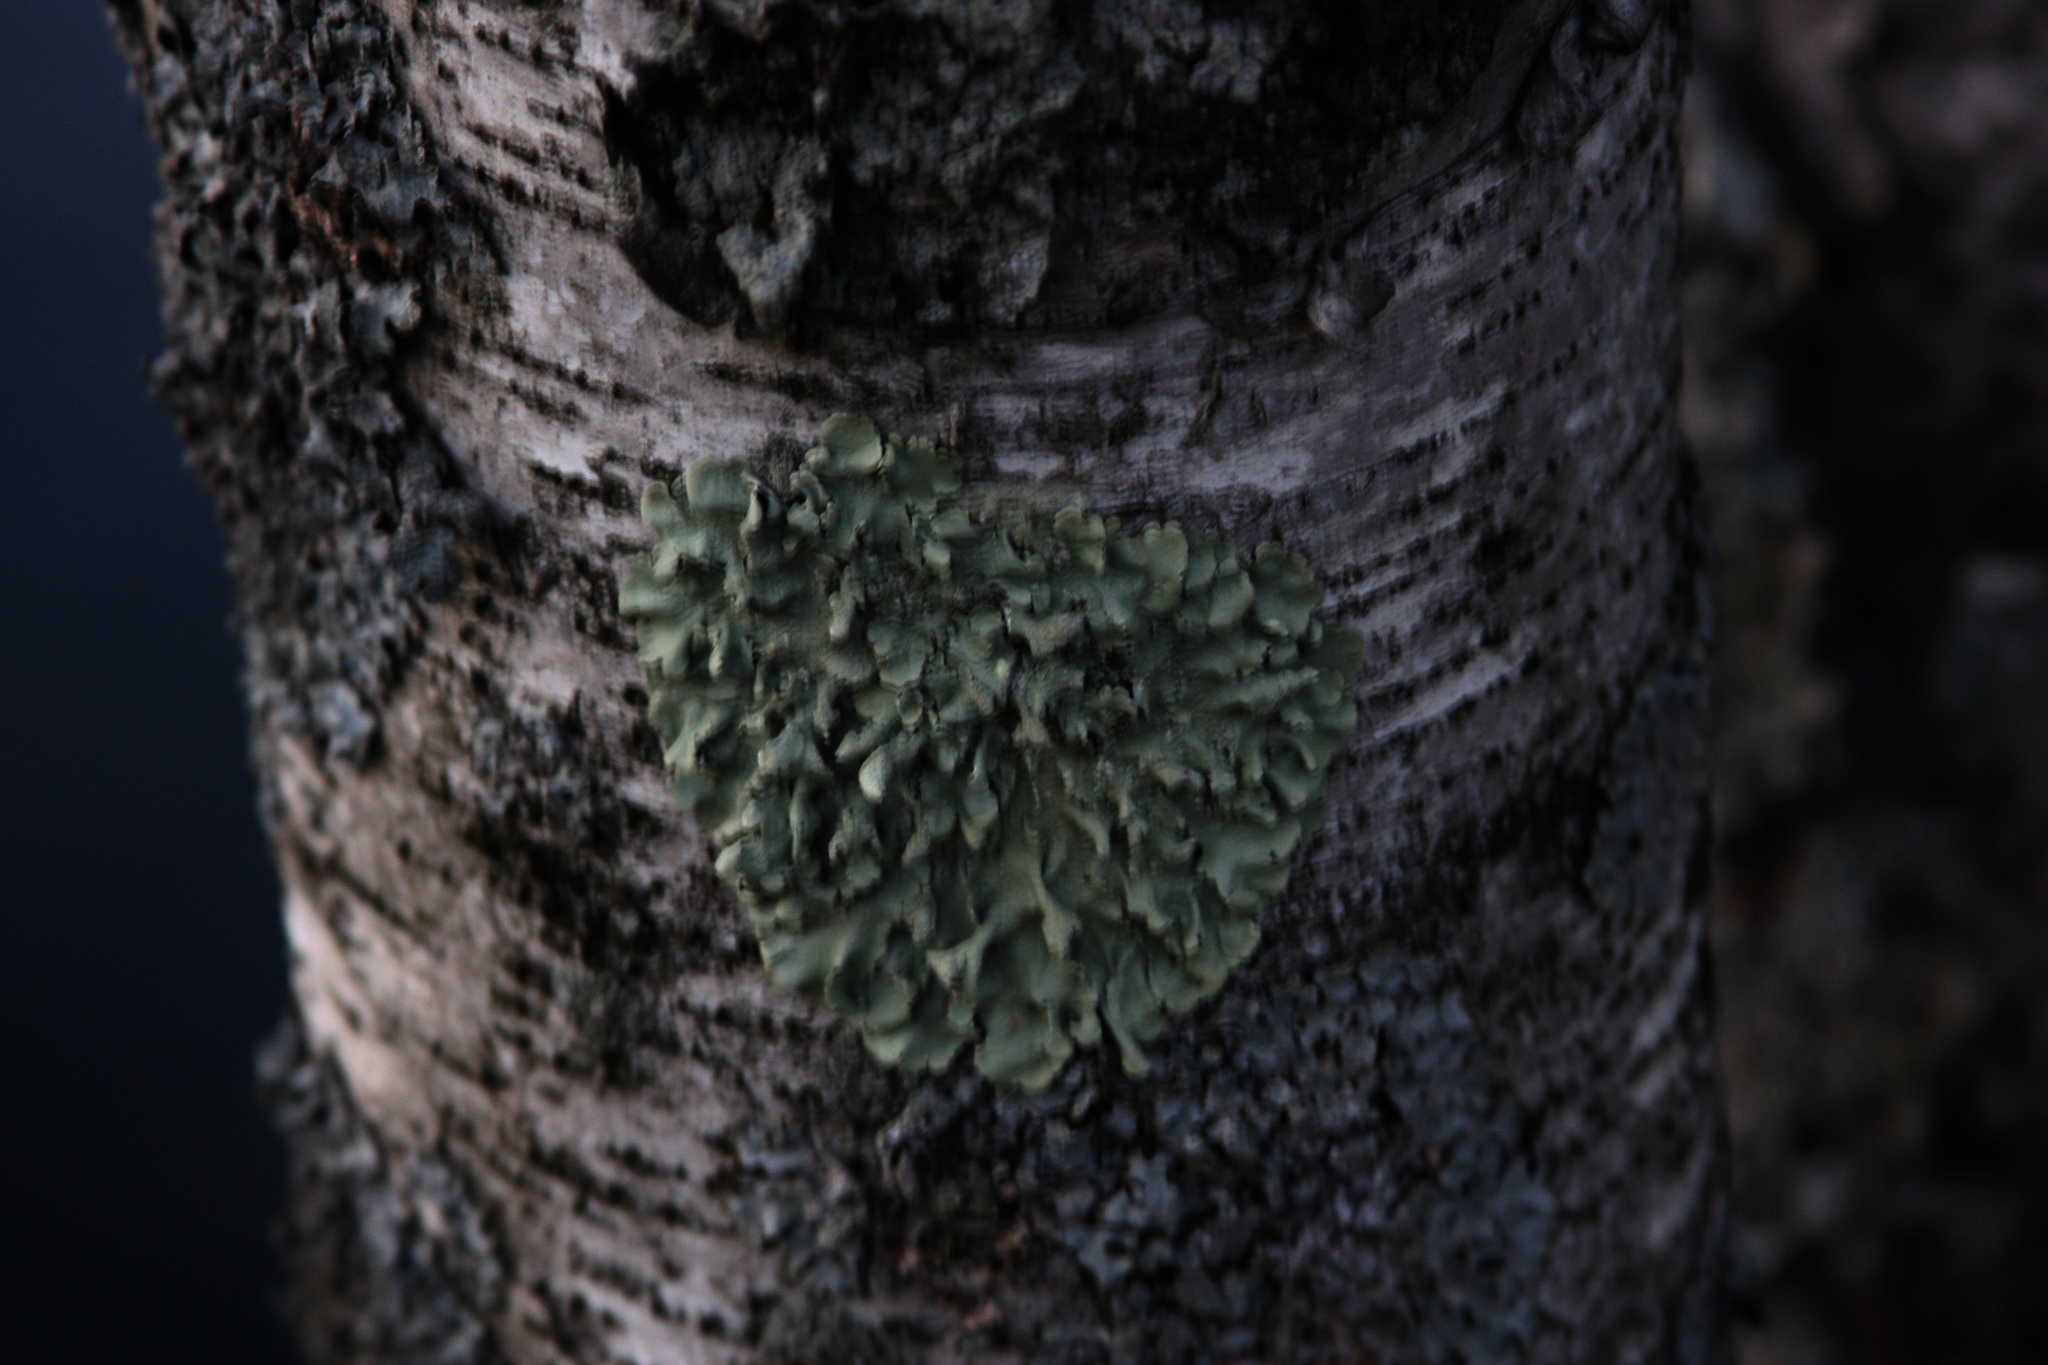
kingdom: Fungi
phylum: Ascomycota
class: Lecanoromycetes
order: Lecanorales
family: Parmeliaceae
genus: Flavoparmelia
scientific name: Flavoparmelia caperata
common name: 40-mile per hour lichen
